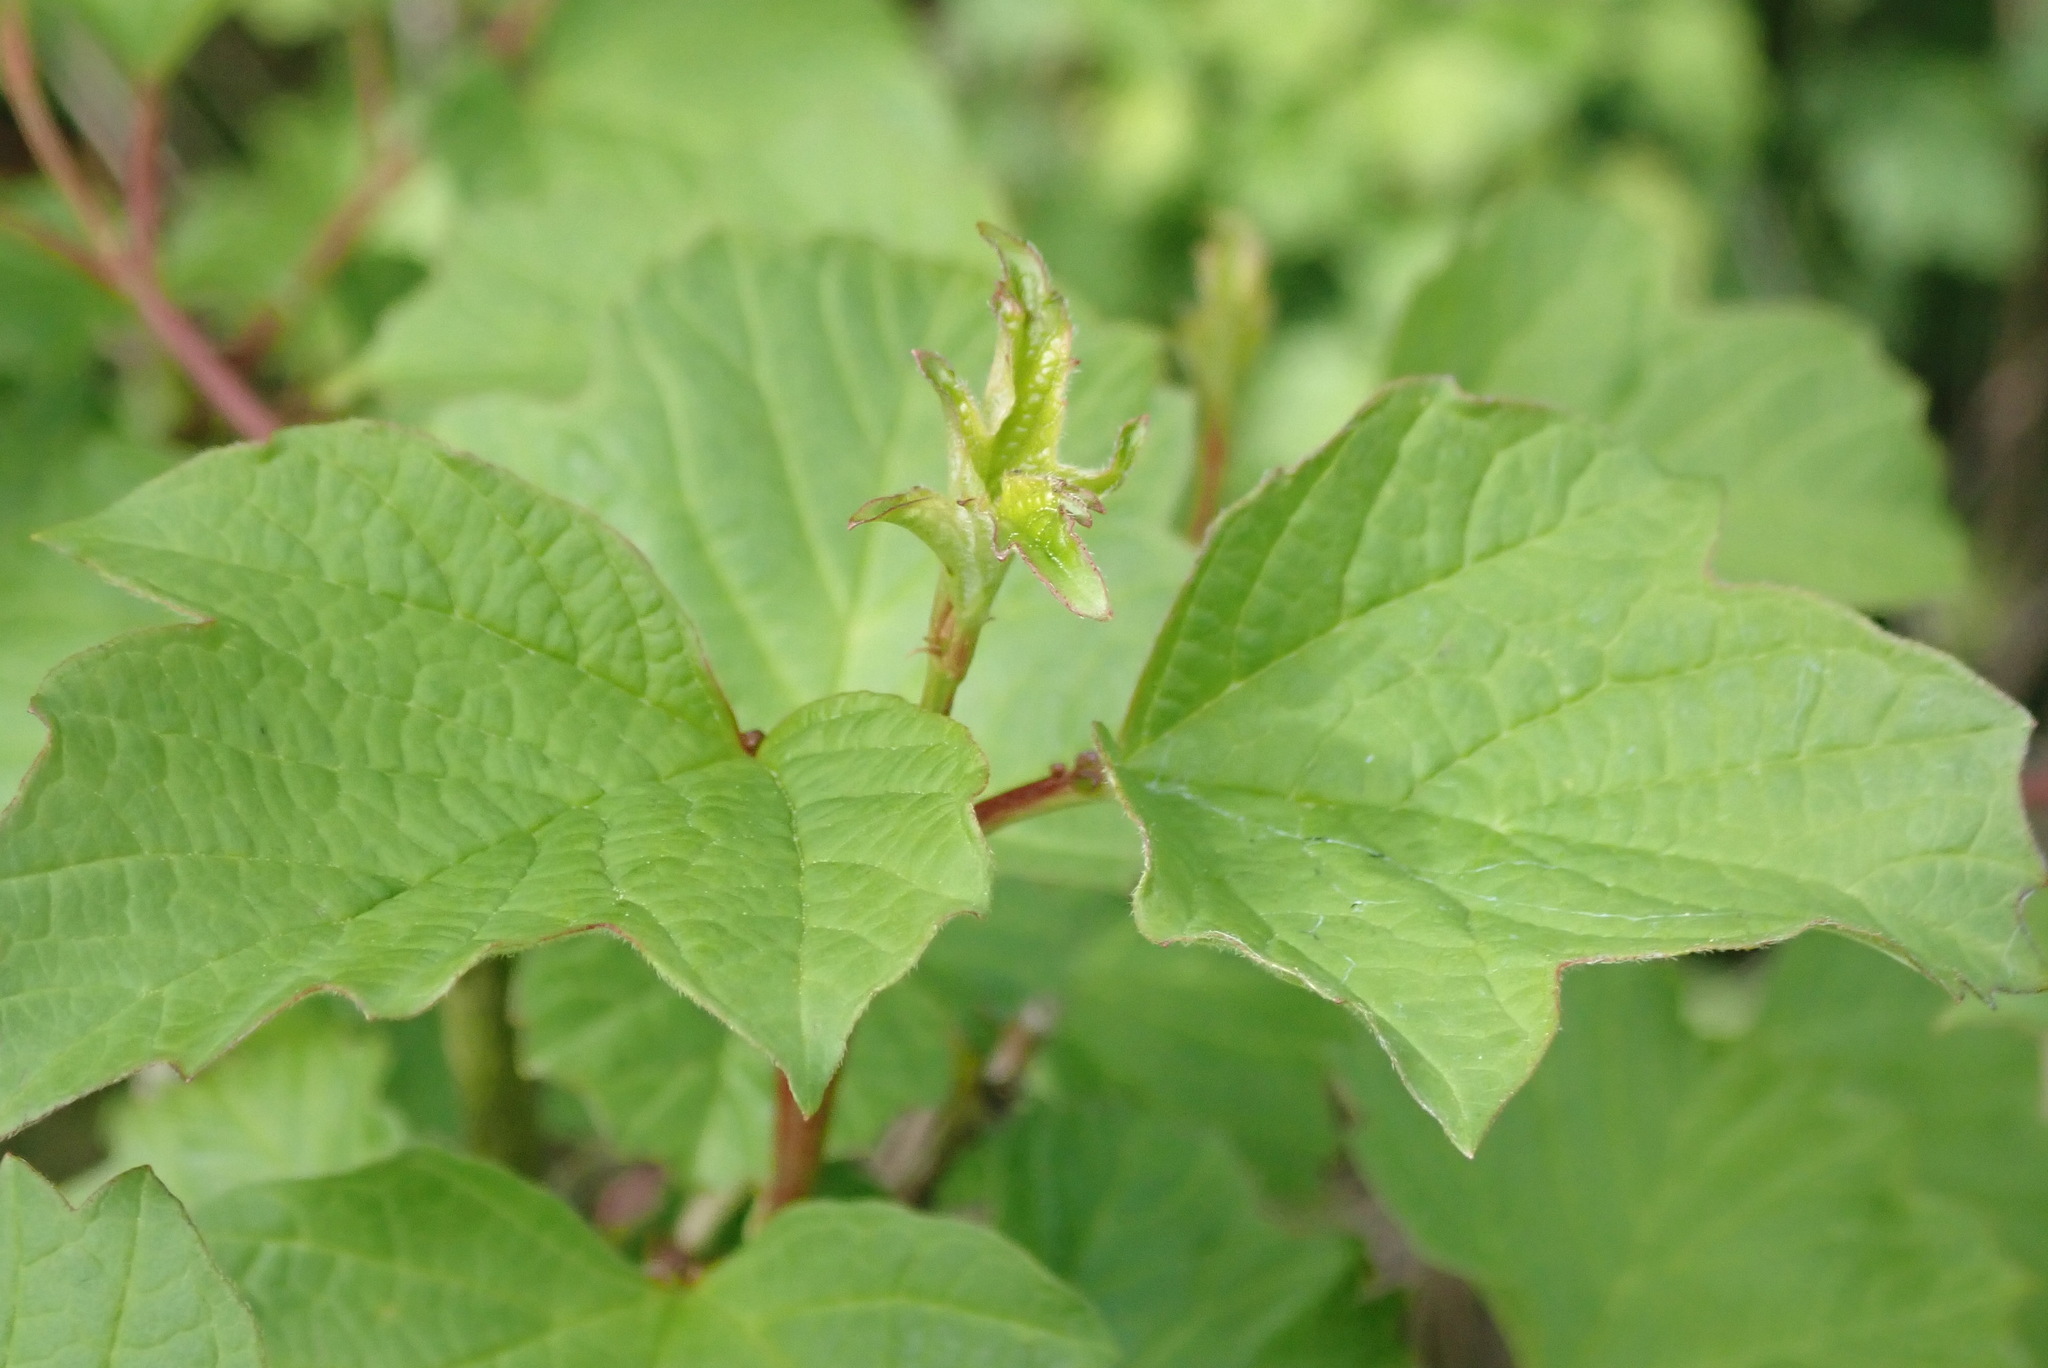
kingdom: Plantae
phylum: Tracheophyta
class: Magnoliopsida
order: Dipsacales
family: Viburnaceae
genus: Viburnum
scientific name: Viburnum opulus
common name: Guelder-rose
